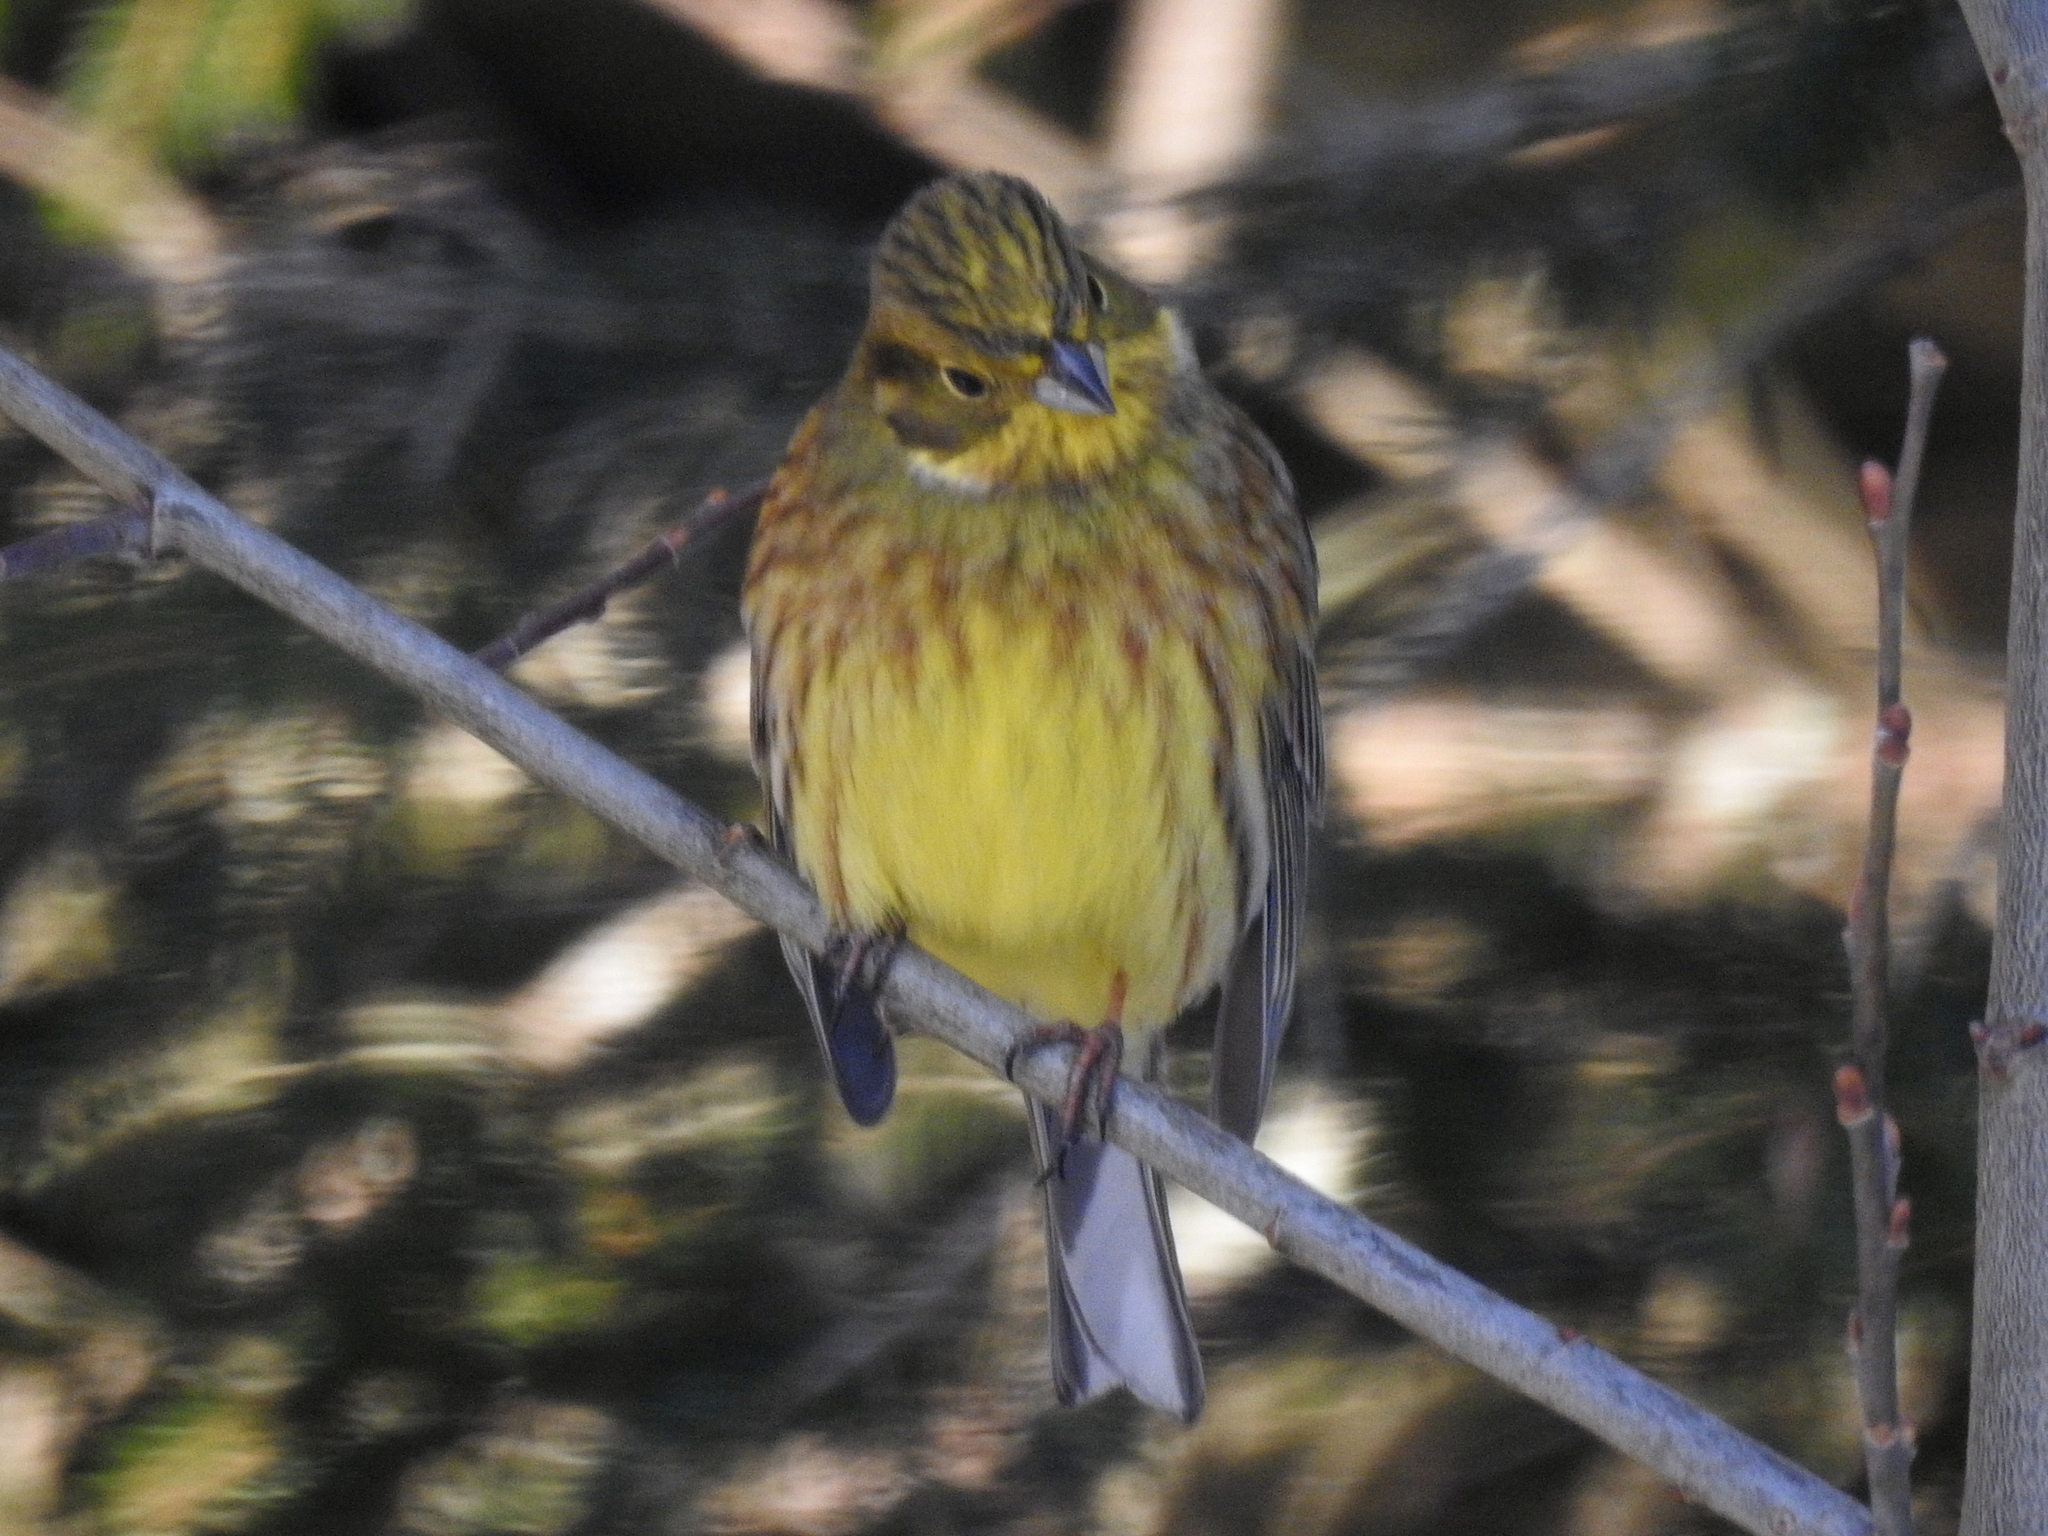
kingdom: Animalia
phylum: Chordata
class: Aves
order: Passeriformes
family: Emberizidae
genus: Emberiza
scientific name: Emberiza citrinella
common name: Yellowhammer
